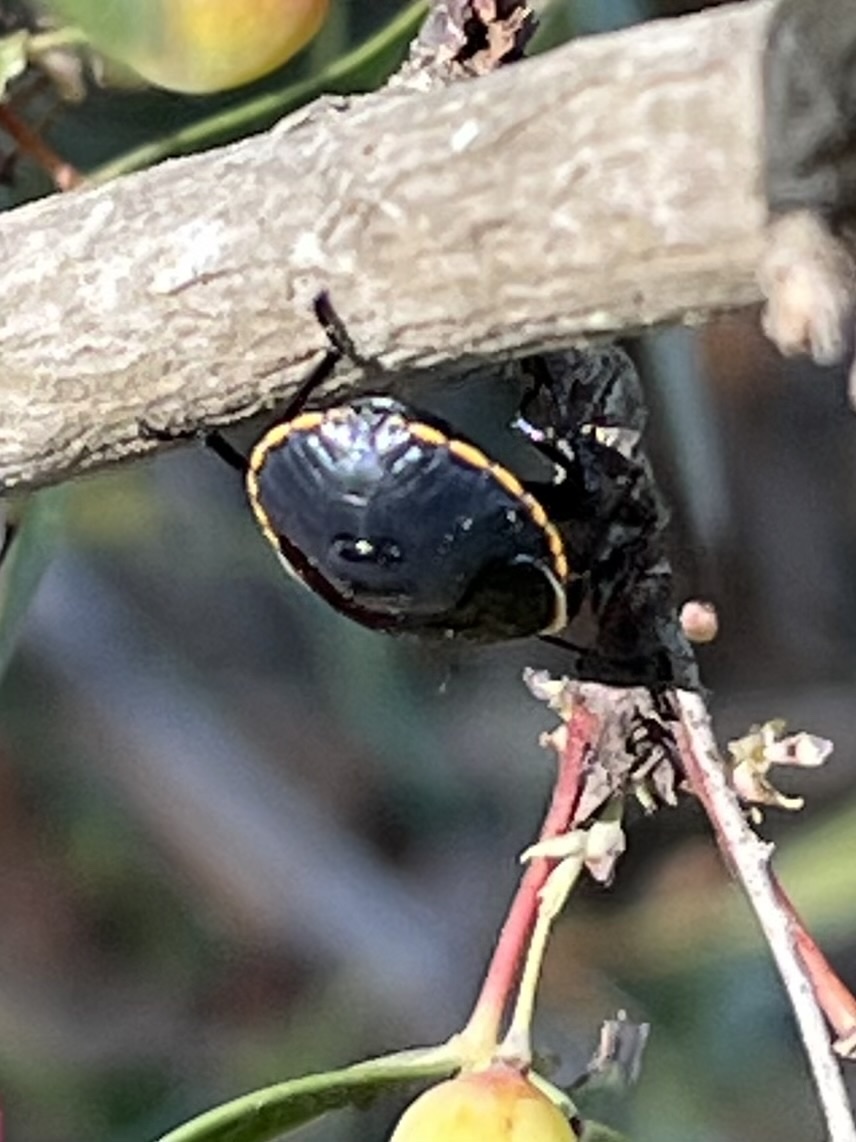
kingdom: Animalia
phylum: Arthropoda
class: Insecta
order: Hemiptera
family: Pentatomidae
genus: Chlorochroa
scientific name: Chlorochroa ligata
